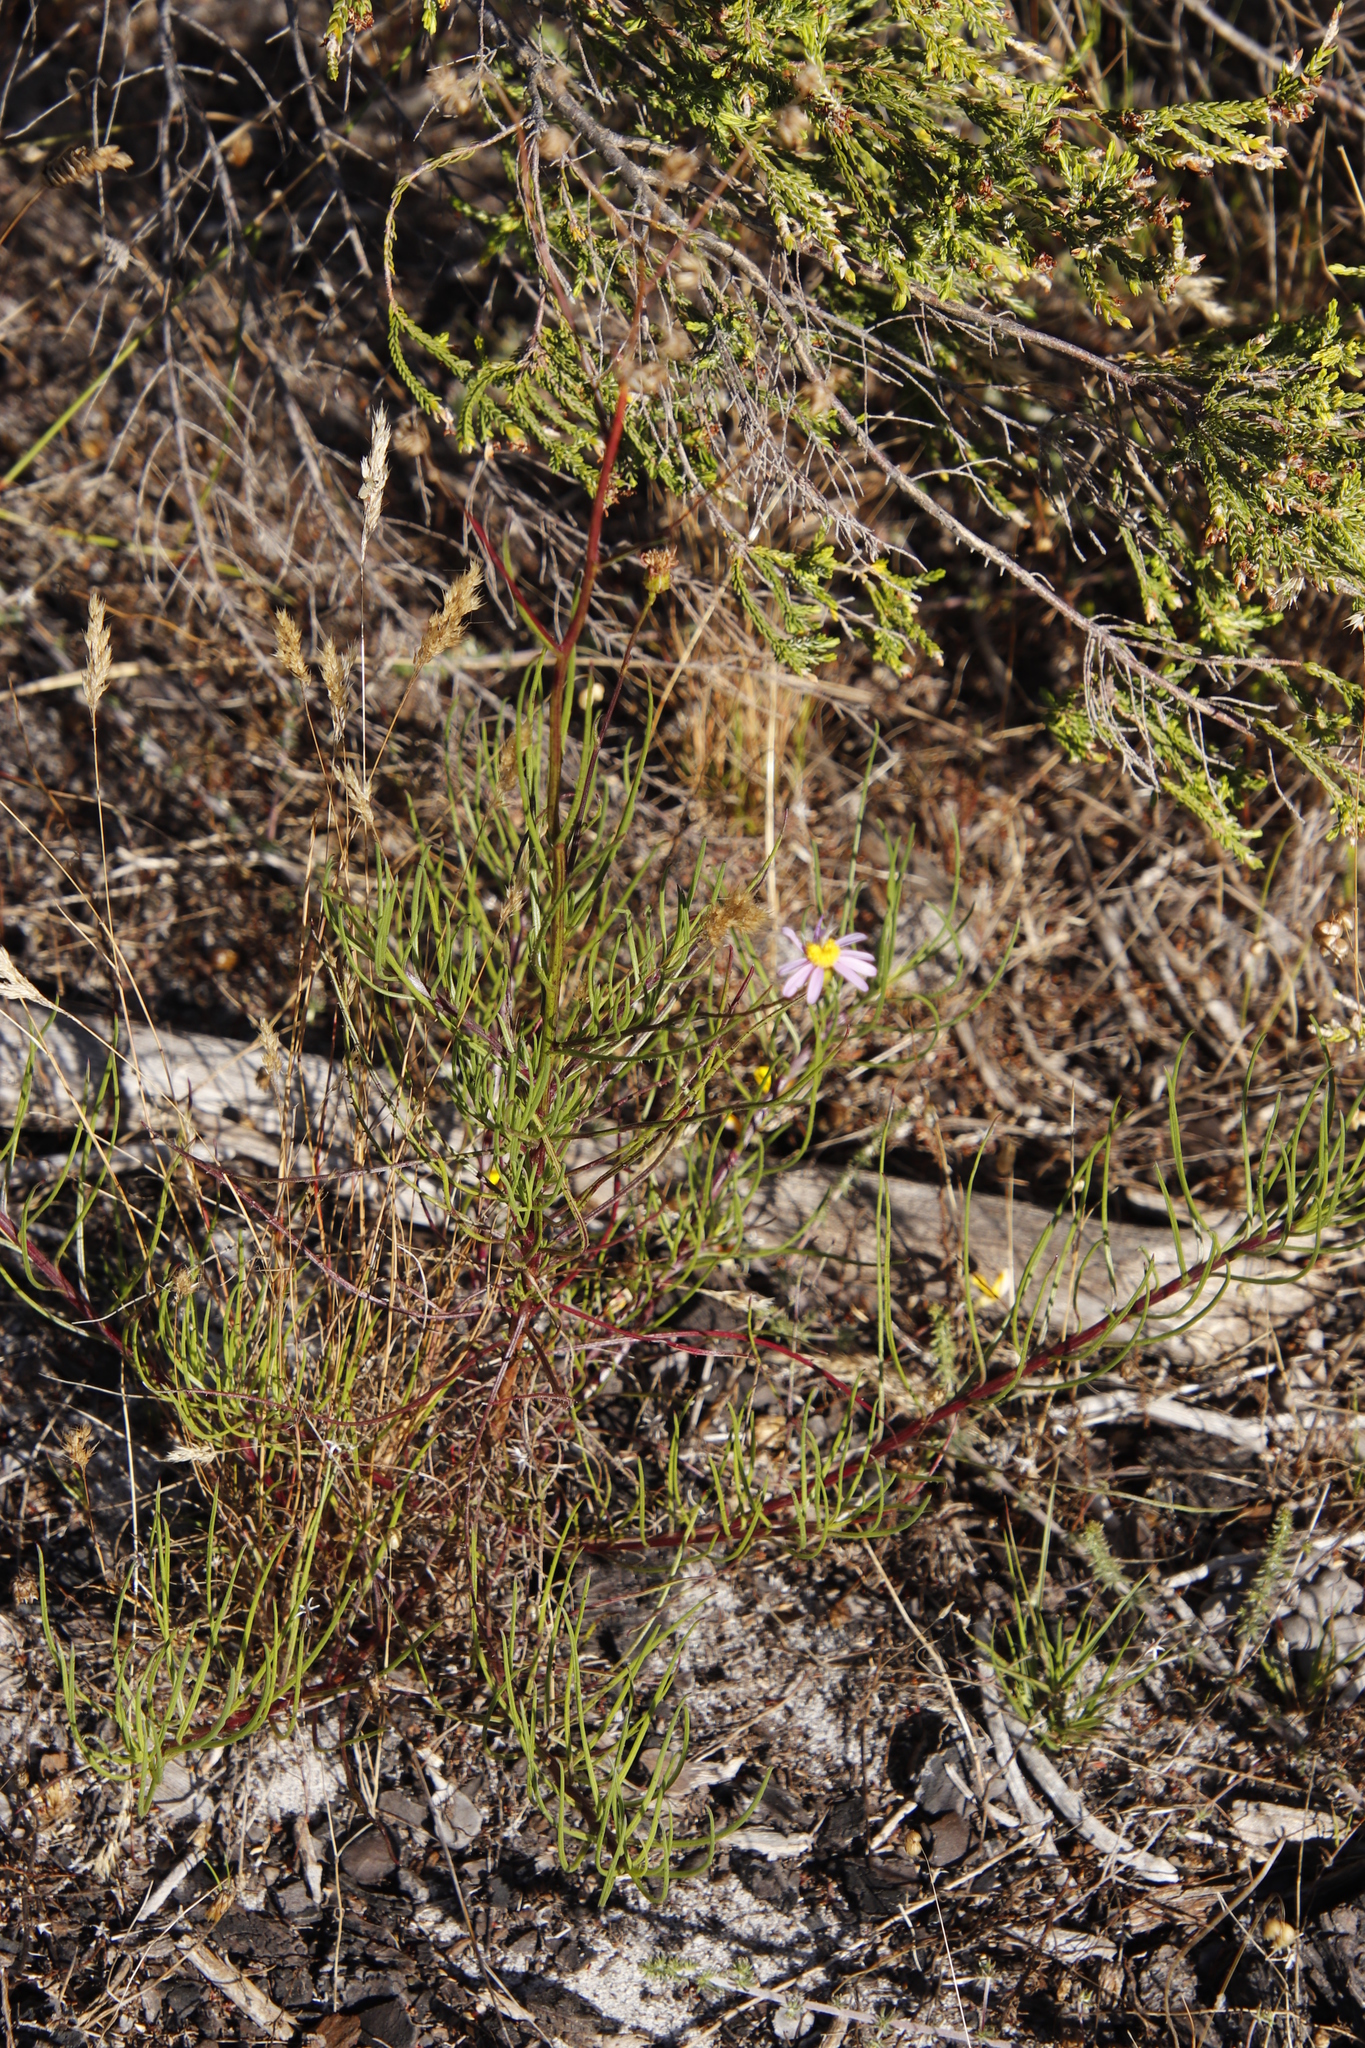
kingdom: Plantae
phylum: Tracheophyta
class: Magnoliopsida
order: Asterales
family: Asteraceae
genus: Senecio
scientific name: Senecio umbellatus
